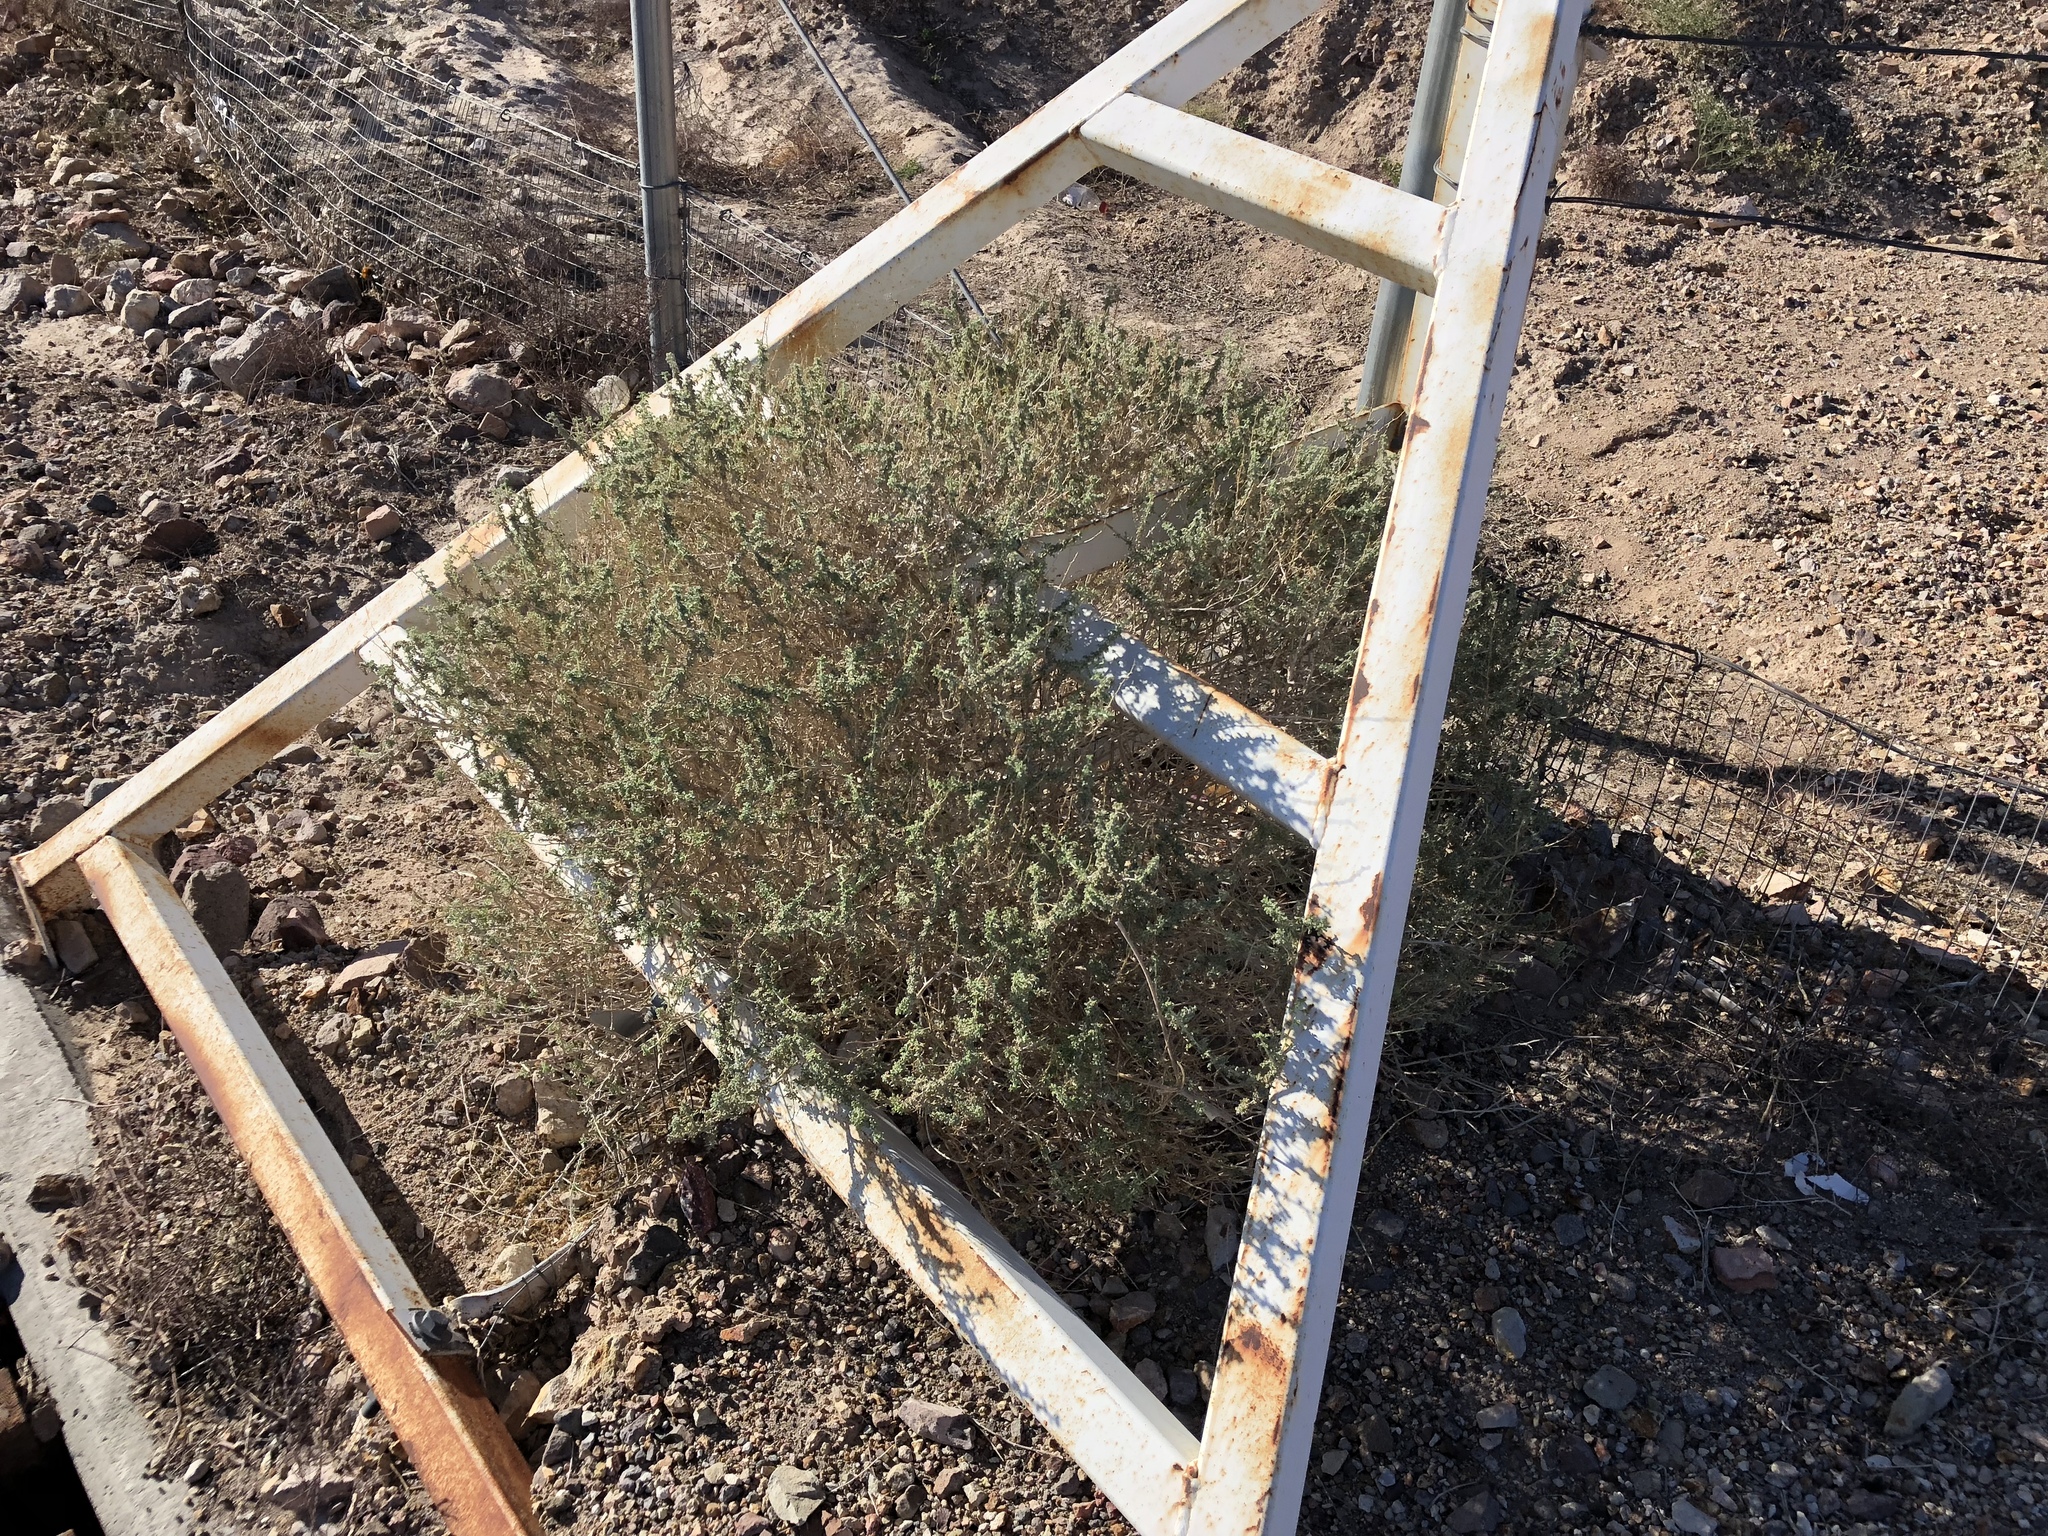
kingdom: Plantae
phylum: Tracheophyta
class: Magnoliopsida
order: Caryophyllales
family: Amaranthaceae
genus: Atriplex
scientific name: Atriplex polycarpa
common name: Desert saltbush
